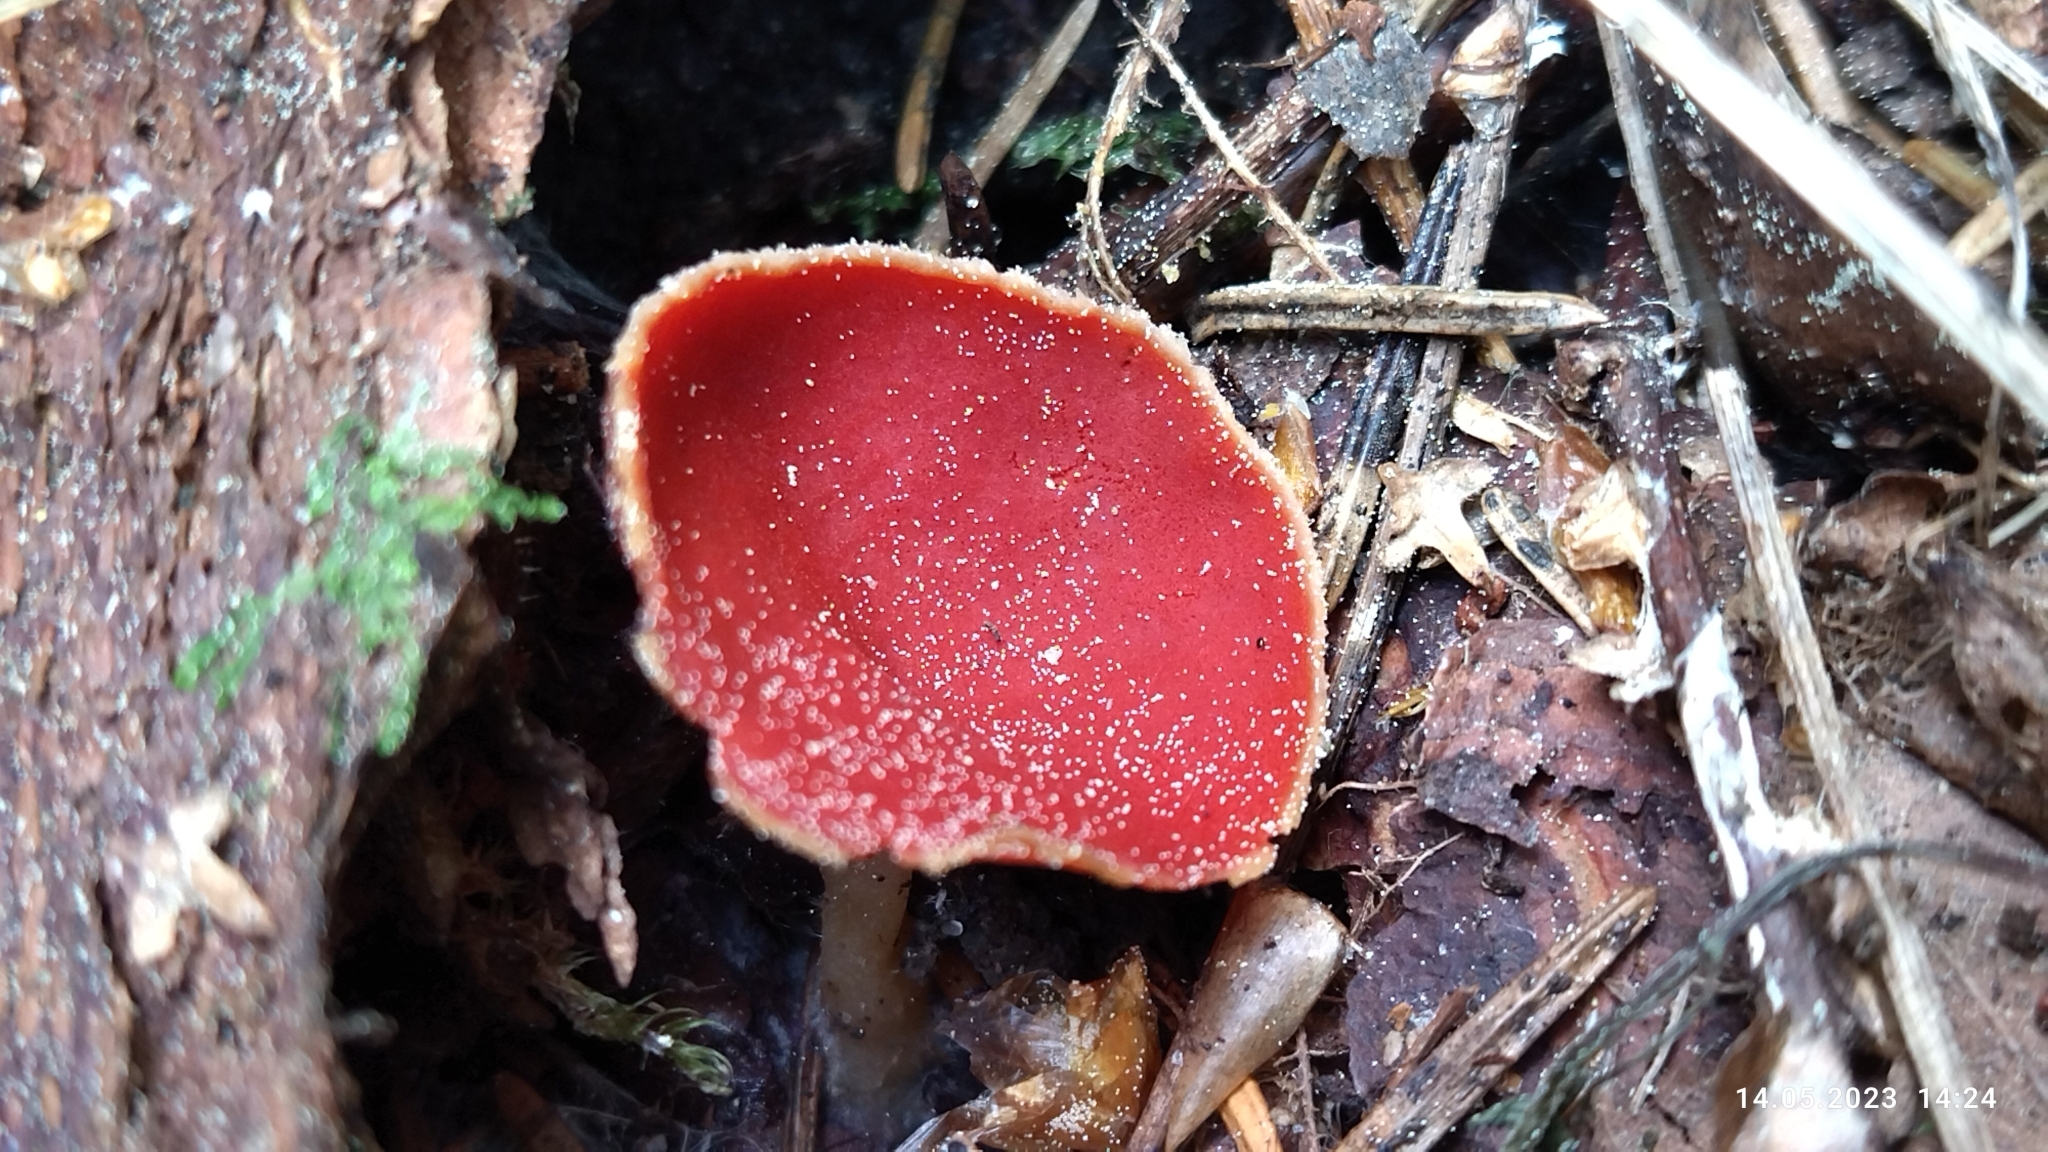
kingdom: Fungi
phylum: Ascomycota
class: Pezizomycetes
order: Pezizales
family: Sarcoscyphaceae
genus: Sarcoscypha
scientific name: Sarcoscypha austriaca
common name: Scarlet elfcup
